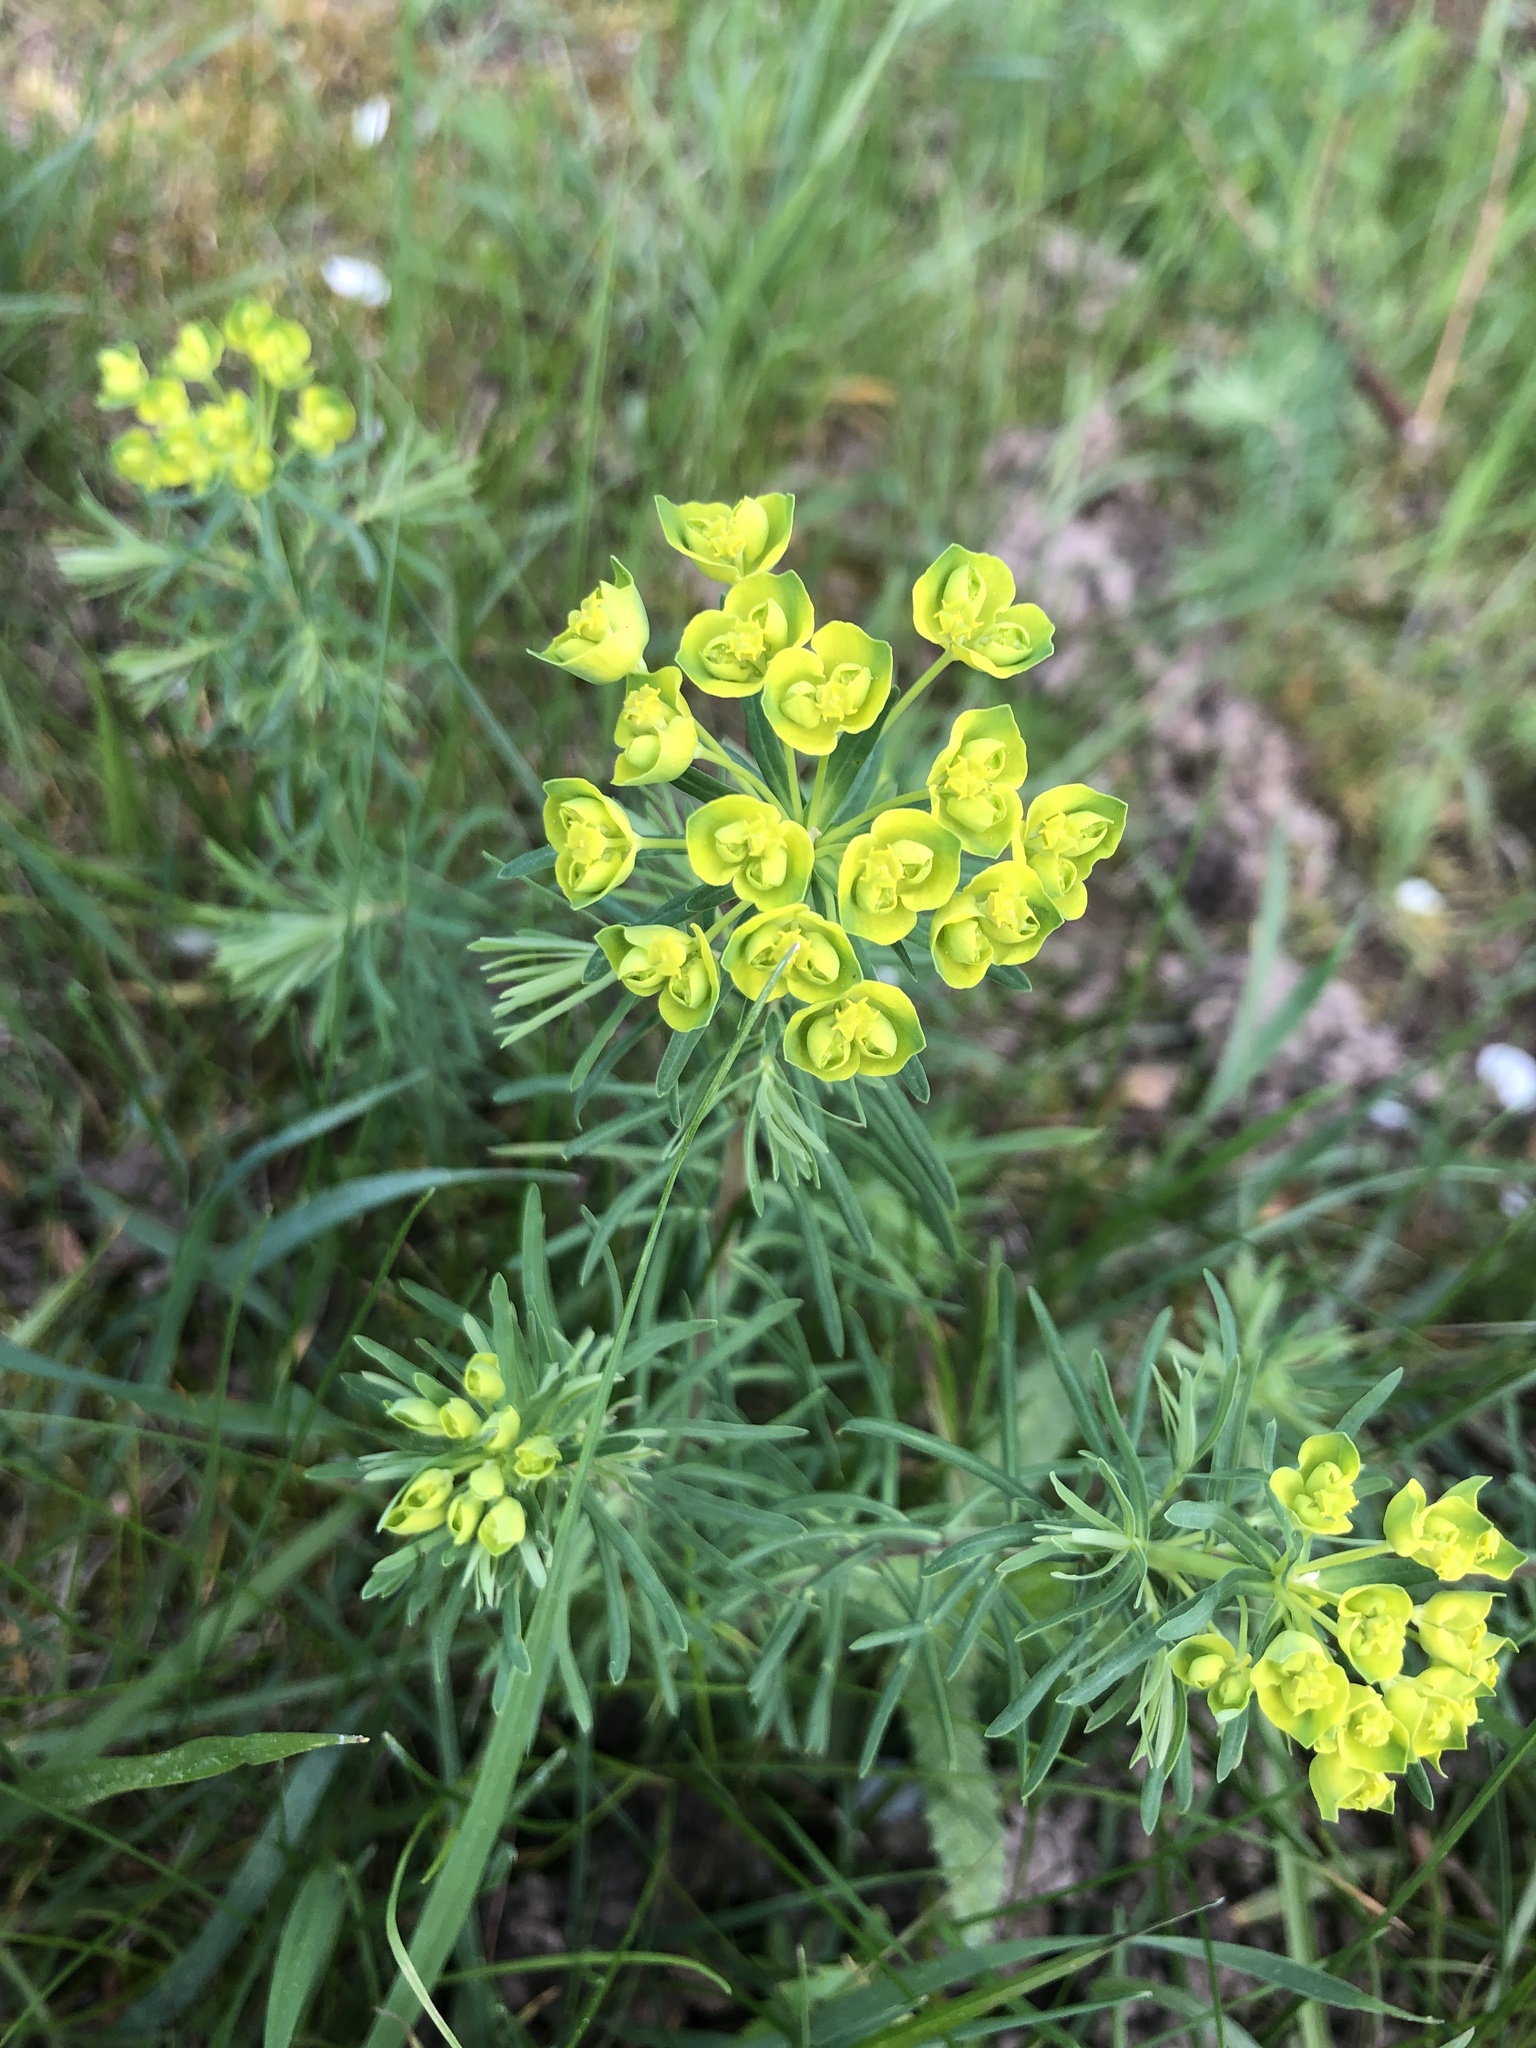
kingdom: Plantae
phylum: Tracheophyta
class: Magnoliopsida
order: Malpighiales
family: Euphorbiaceae
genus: Euphorbia
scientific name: Euphorbia cyparissias
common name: Cypress spurge
